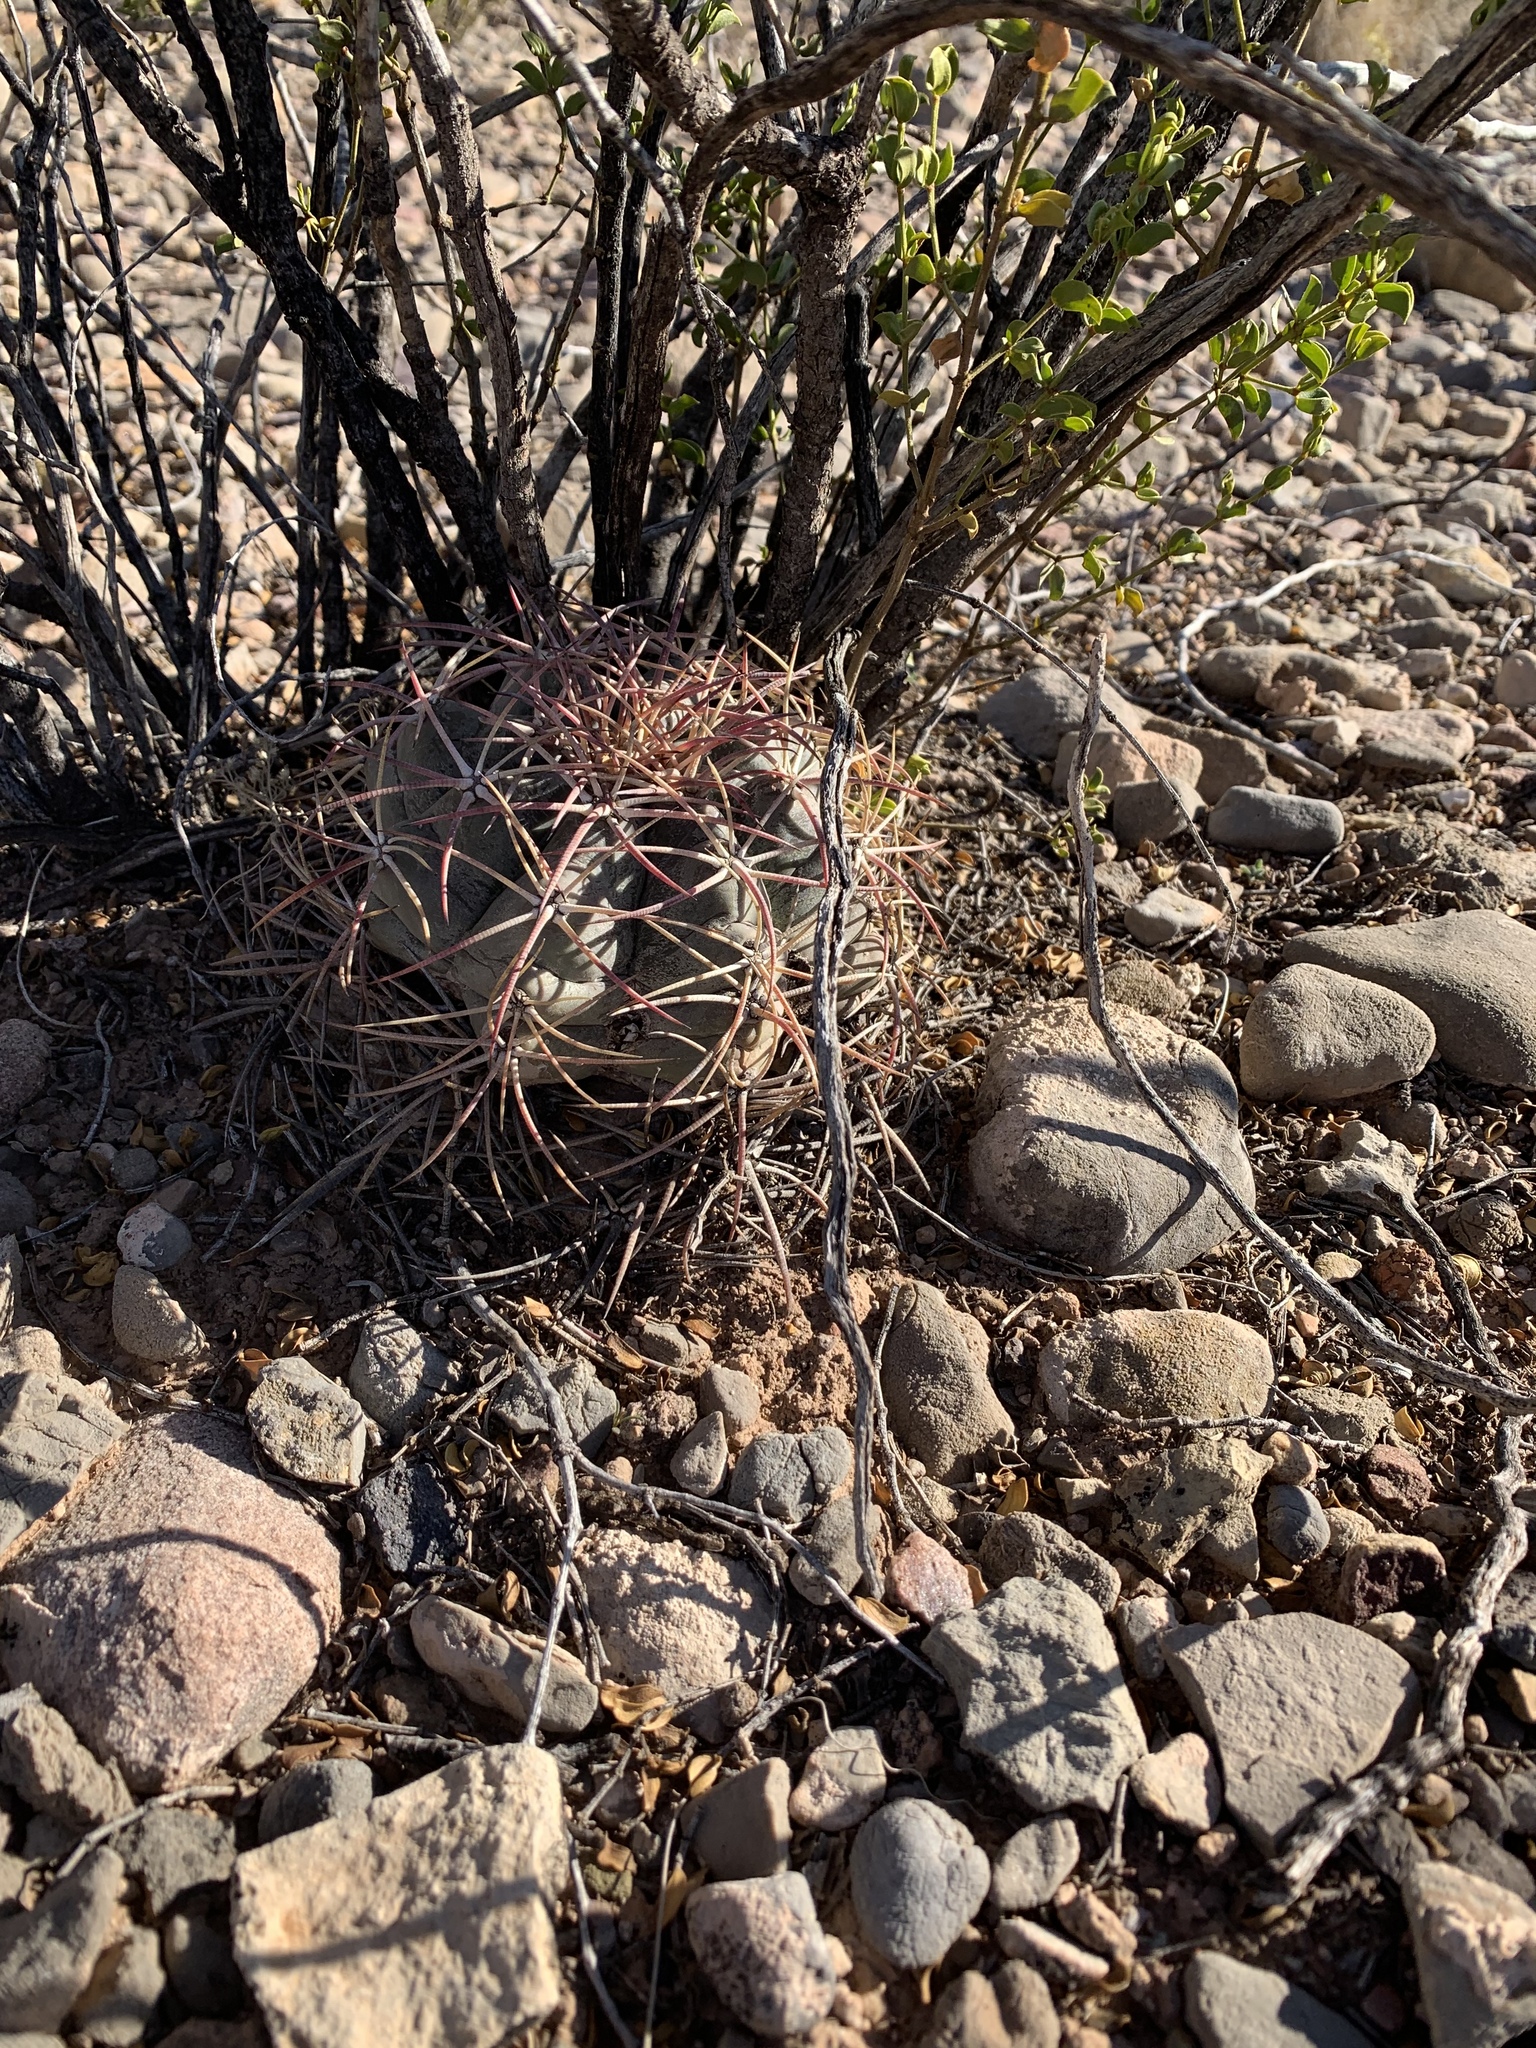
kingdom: Plantae
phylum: Tracheophyta
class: Magnoliopsida
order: Caryophyllales
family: Cactaceae
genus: Echinocactus
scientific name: Echinocactus horizonthalonius
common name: Devilshead
